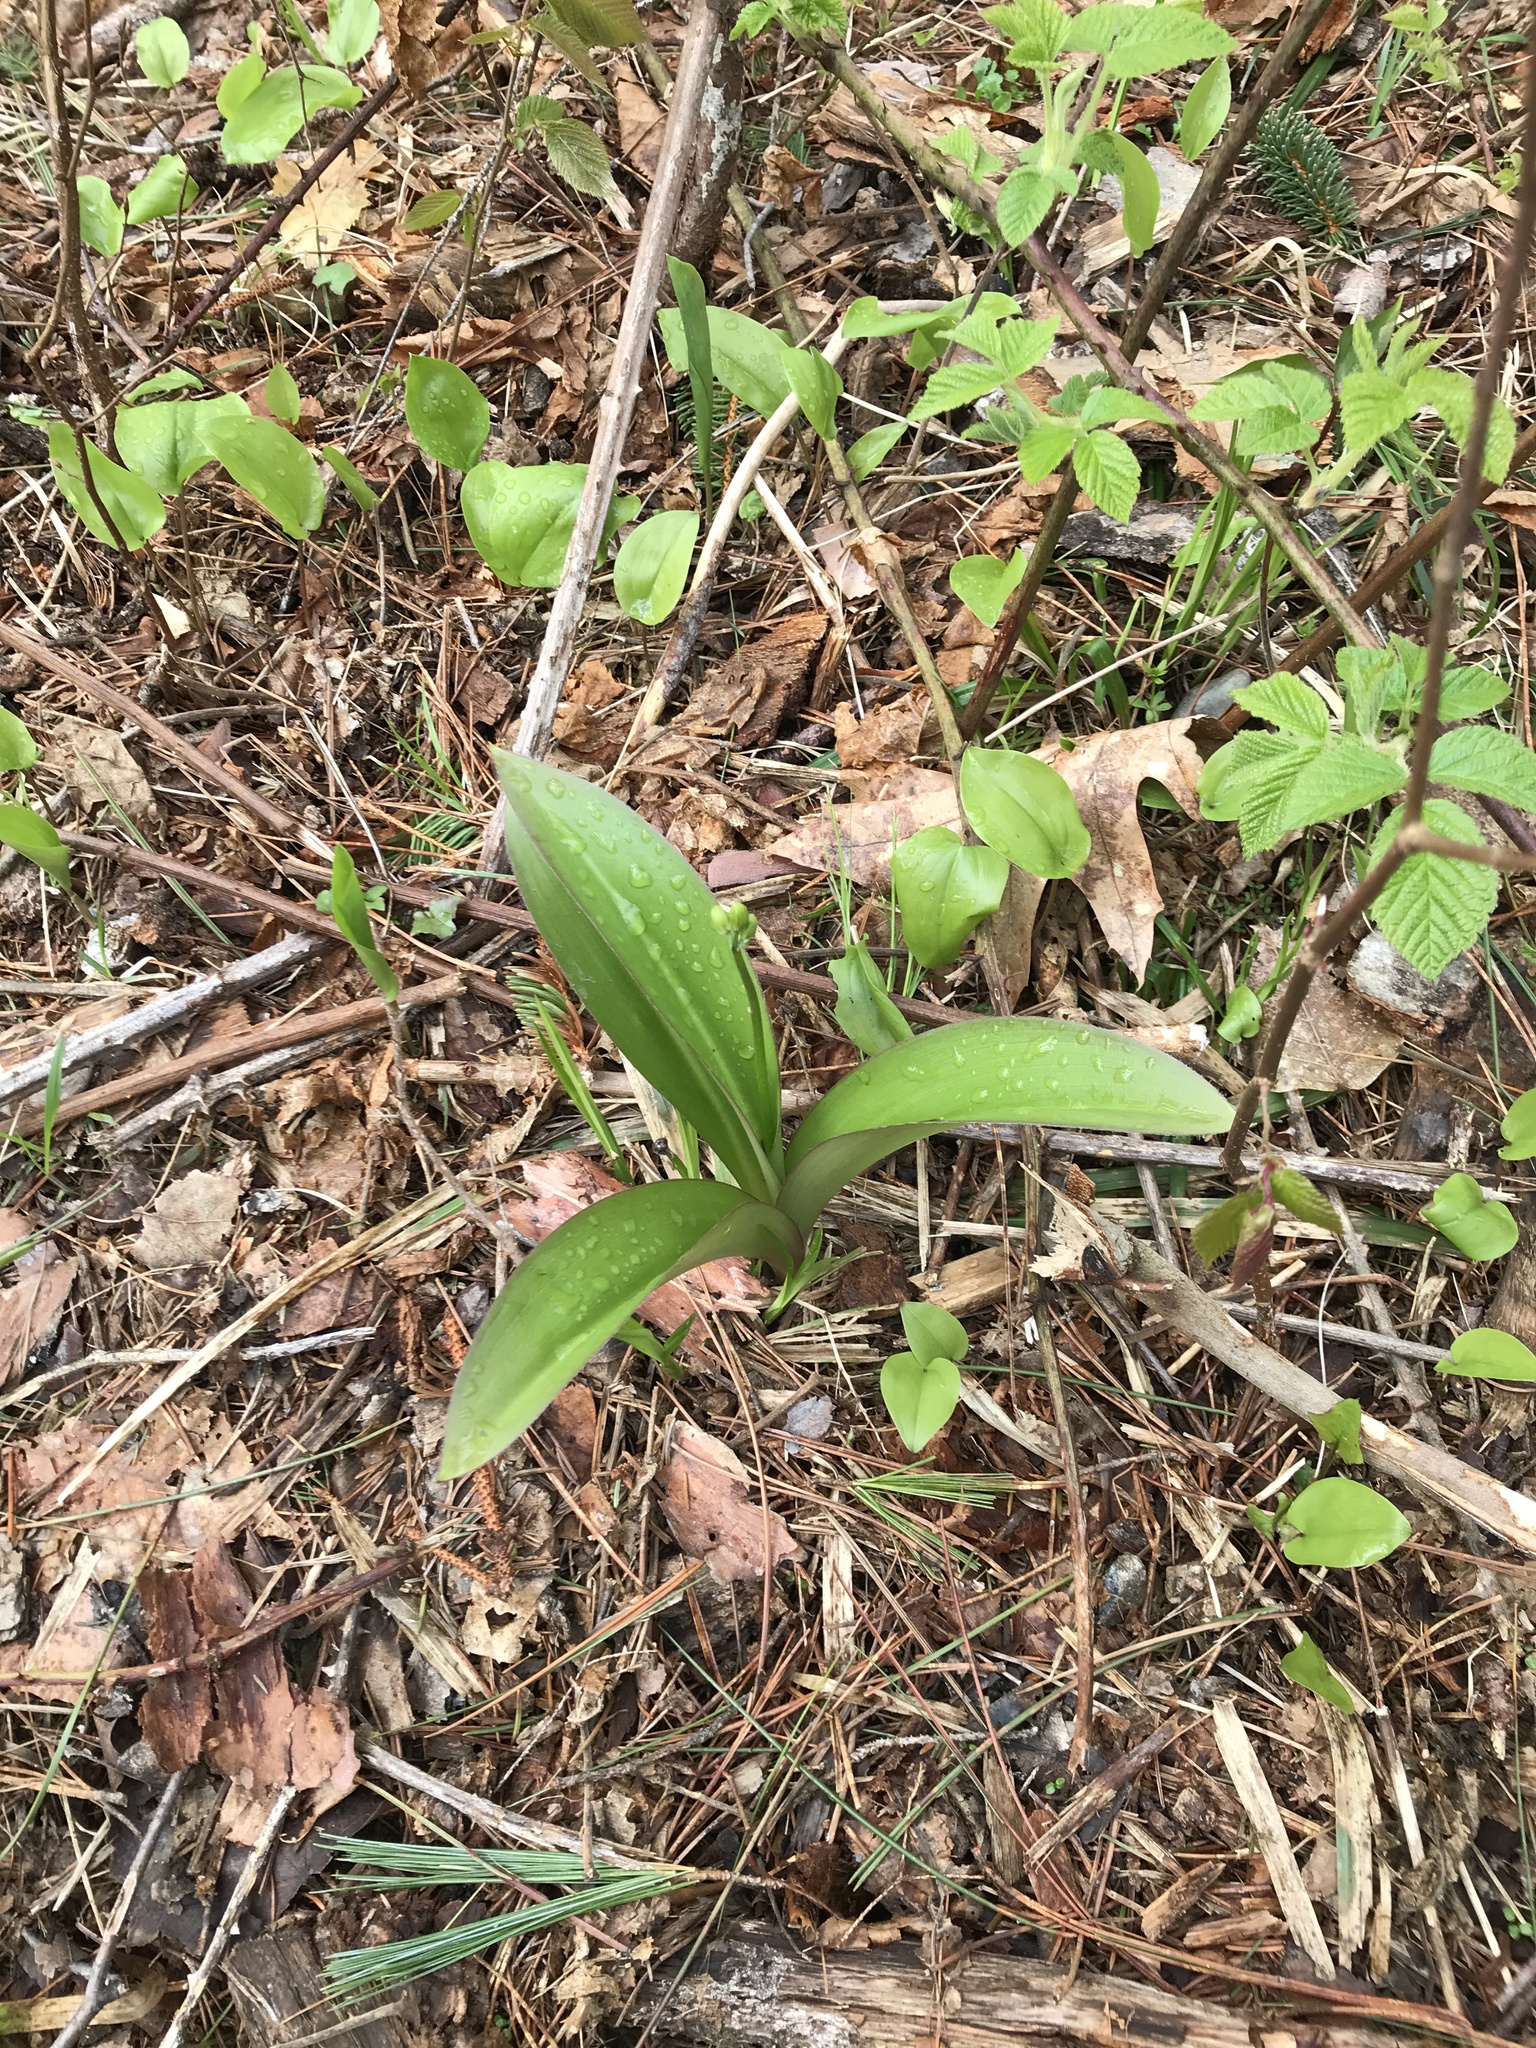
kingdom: Plantae
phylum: Tracheophyta
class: Liliopsida
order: Liliales
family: Liliaceae
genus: Clintonia
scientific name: Clintonia borealis
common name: Yellow clintonia
